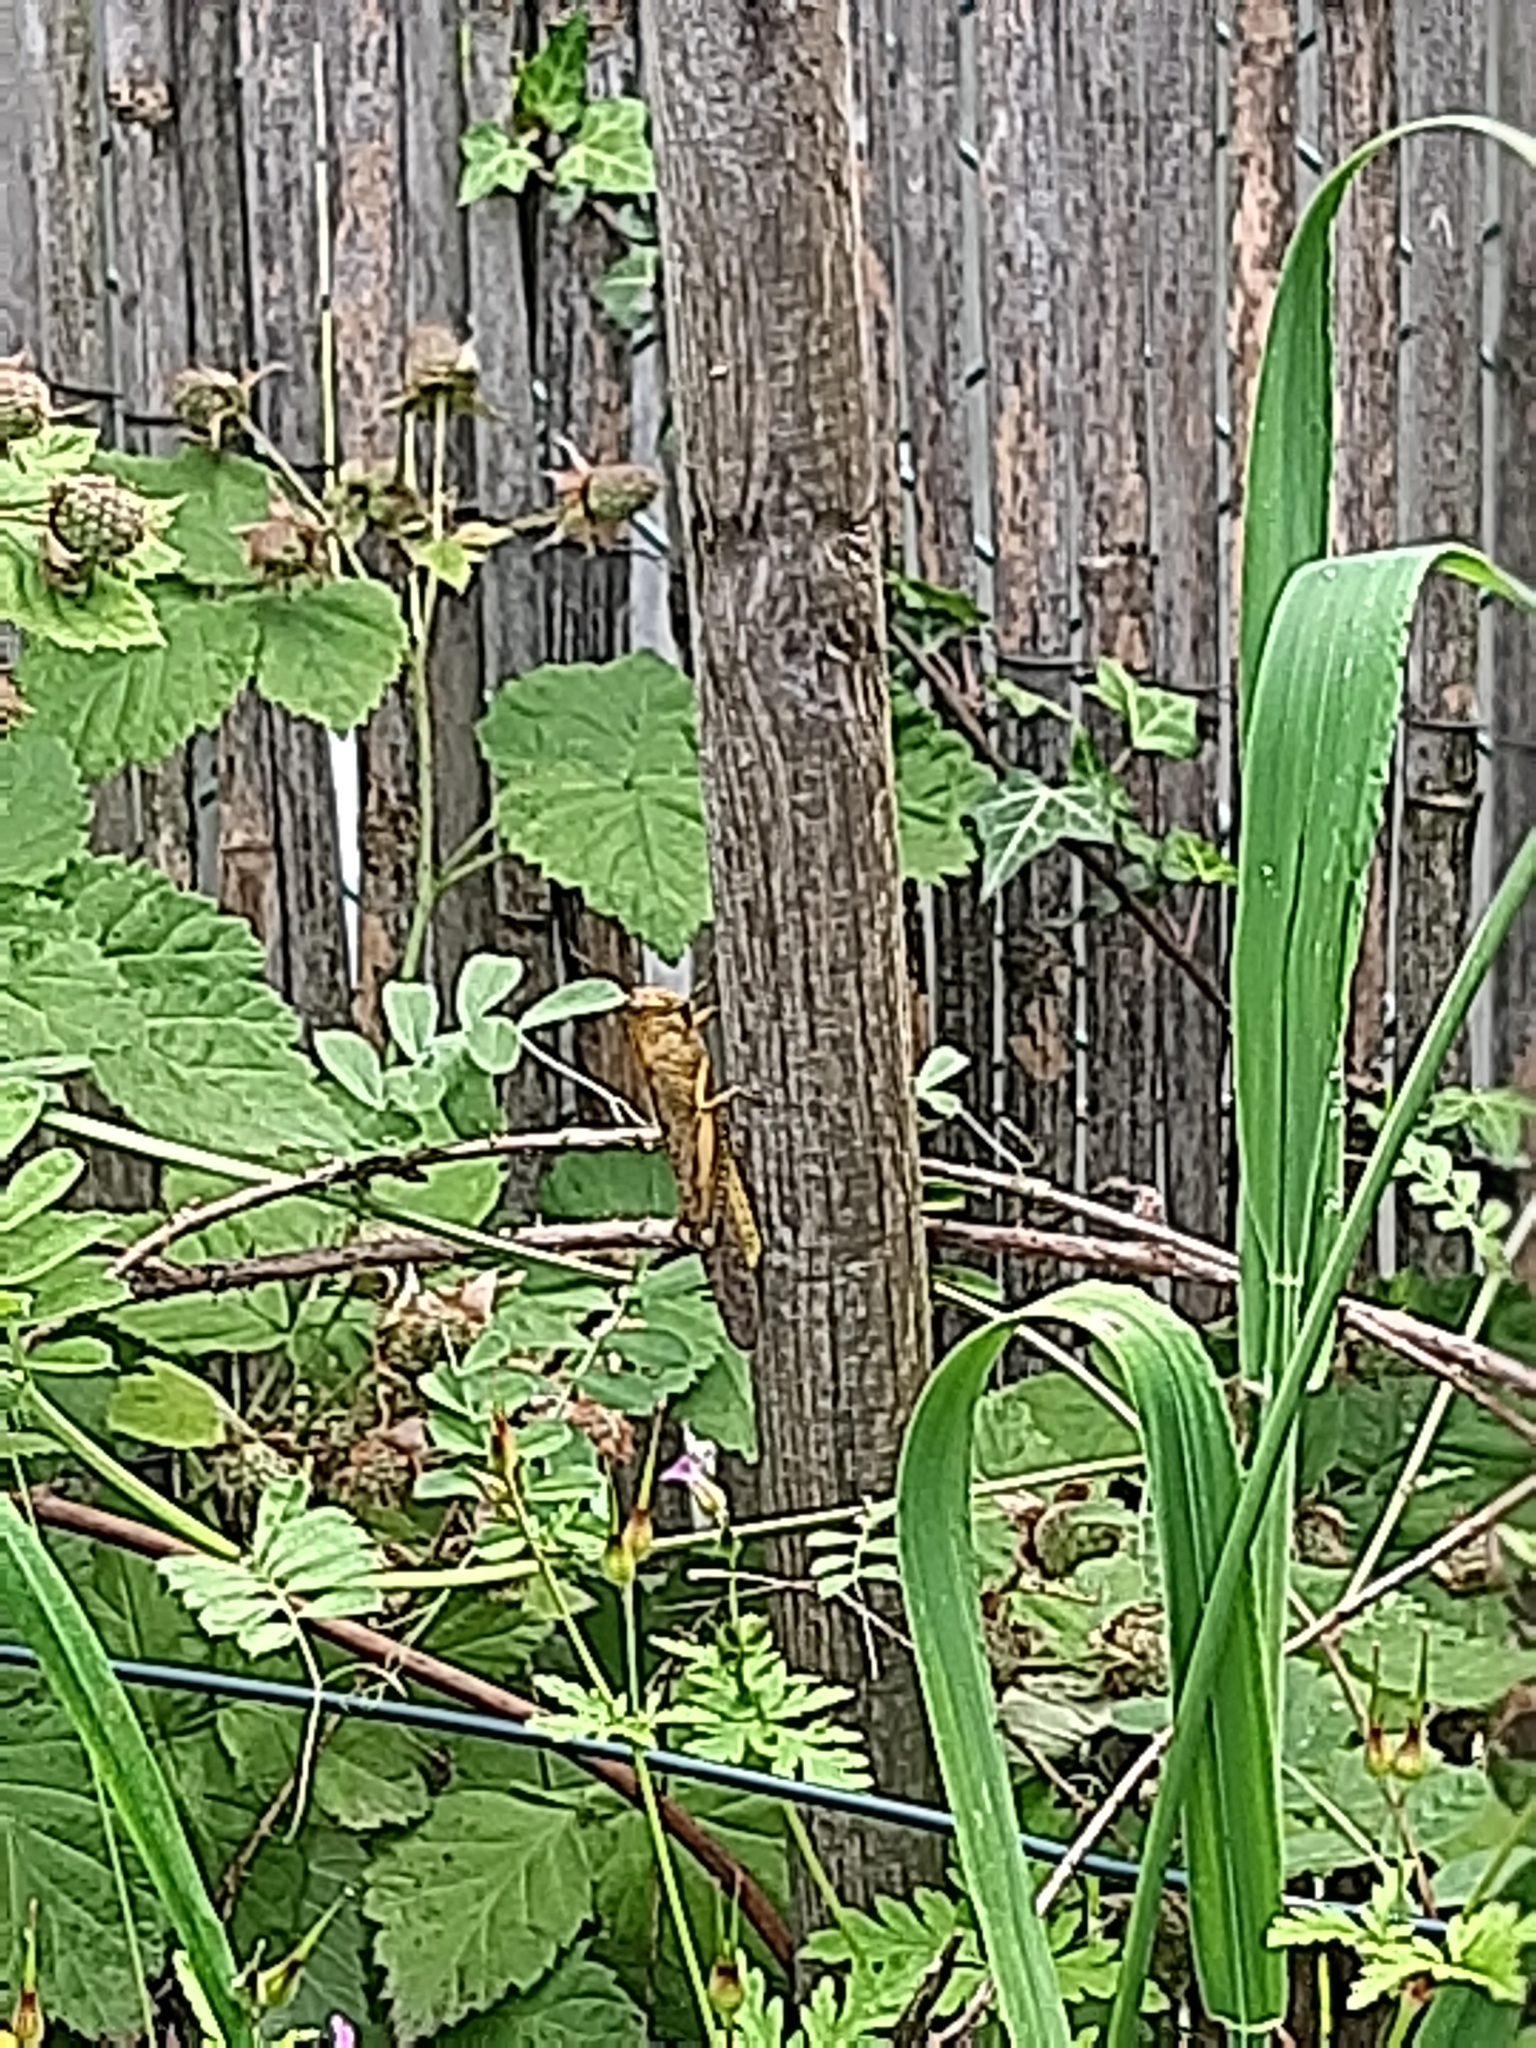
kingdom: Animalia
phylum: Arthropoda
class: Insecta
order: Orthoptera
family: Acrididae
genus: Anacridium
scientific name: Anacridium aegyptium
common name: Egyptian grasshopper
